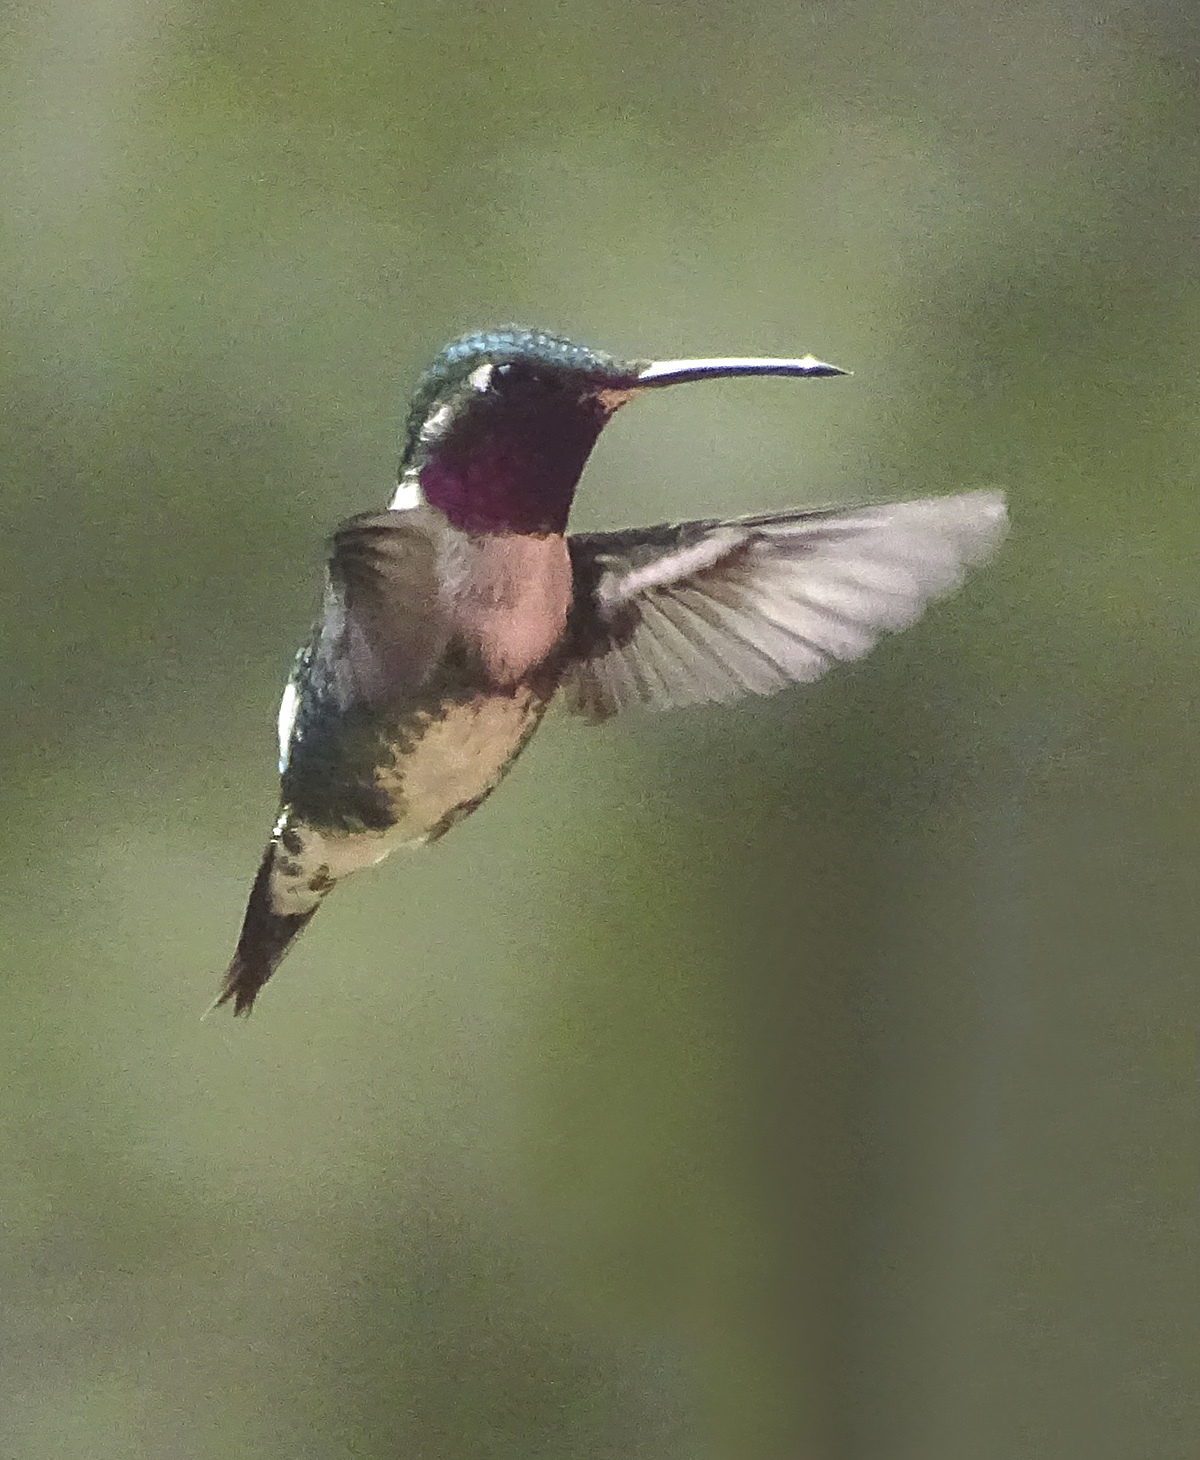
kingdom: Animalia
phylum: Chordata
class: Aves
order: Apodiformes
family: Trochilidae
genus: Chaetocercus
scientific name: Chaetocercus mulsant
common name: White-bellied woodstar
